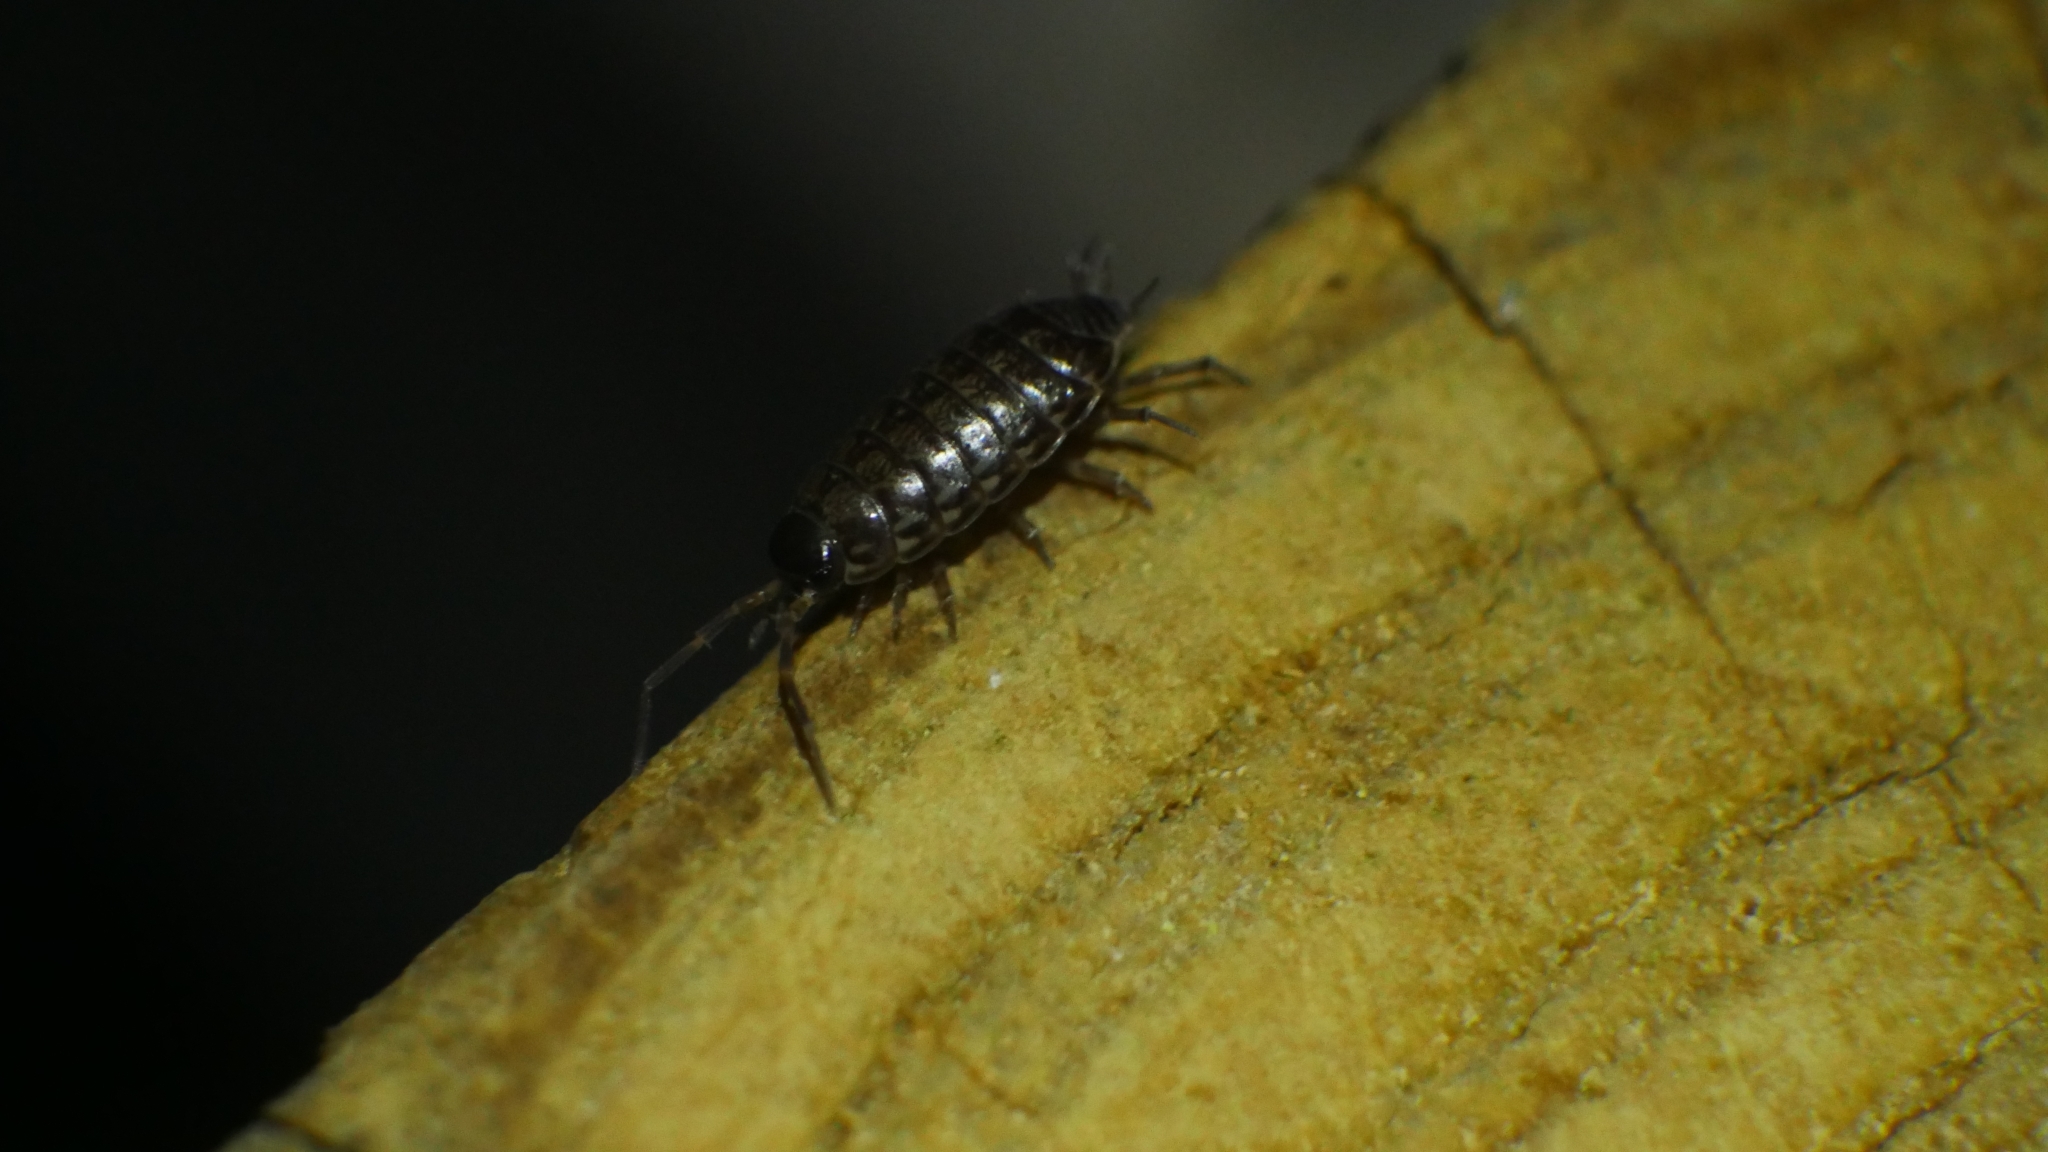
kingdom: Animalia
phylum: Arthropoda
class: Malacostraca
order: Isopoda
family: Philosciidae
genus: Philoscia
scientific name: Philoscia muscorum
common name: Common striped woodlouse
